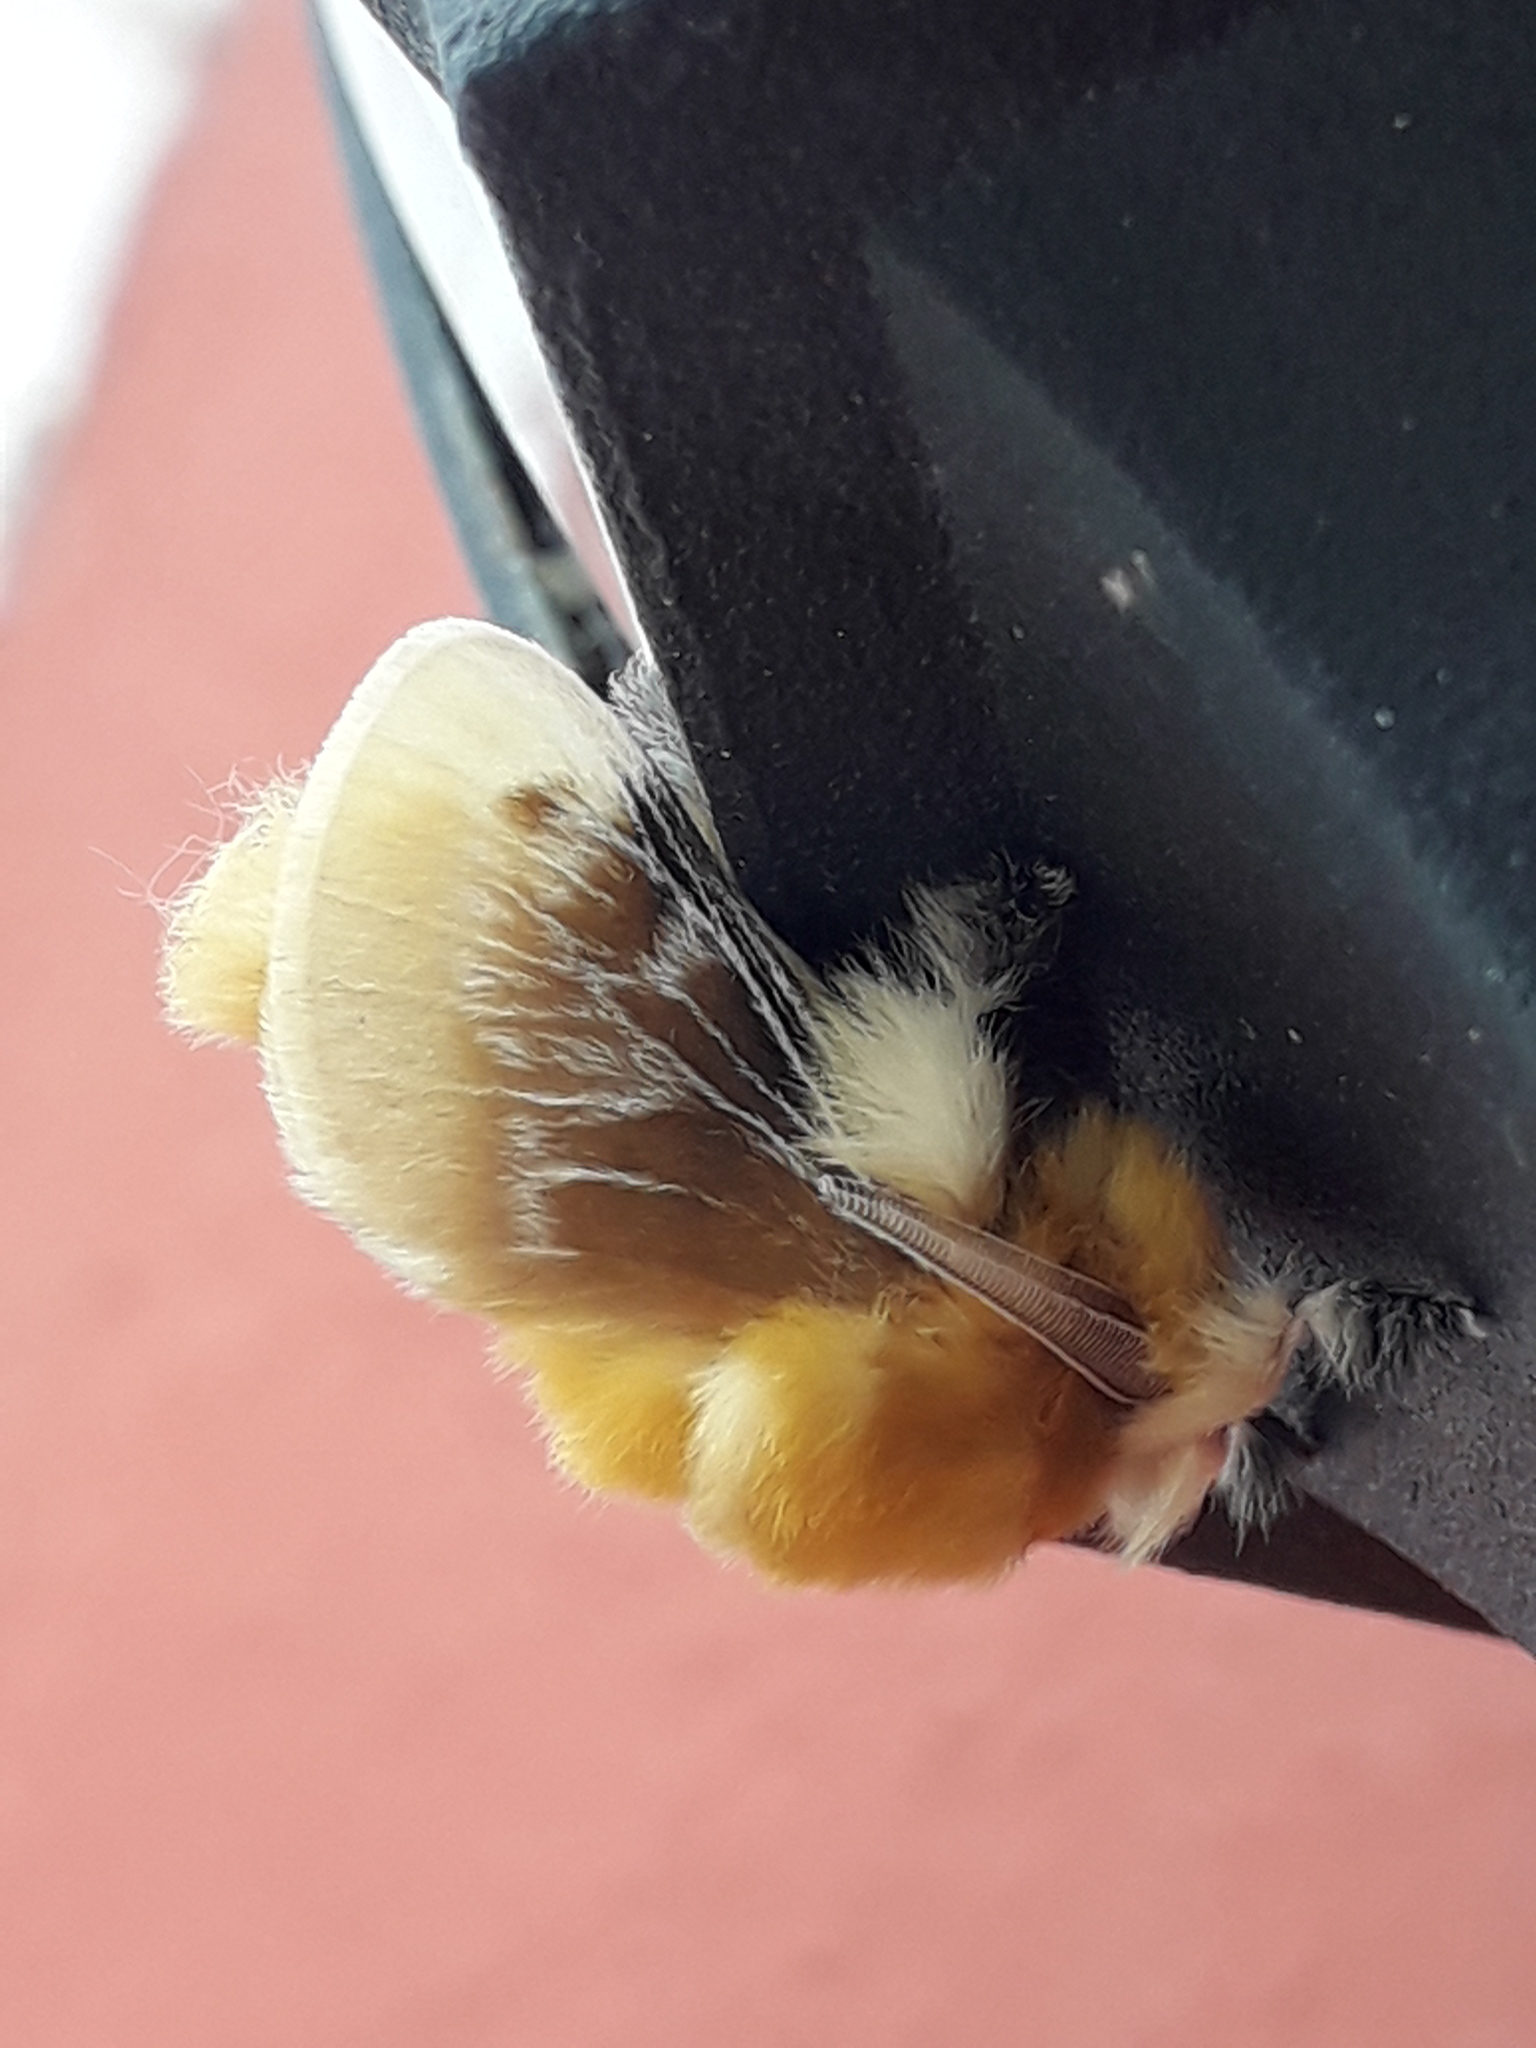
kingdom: Animalia
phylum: Arthropoda
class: Insecta
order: Lepidoptera
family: Megalopygidae
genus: Megalopyge
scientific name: Megalopyge opercularis
